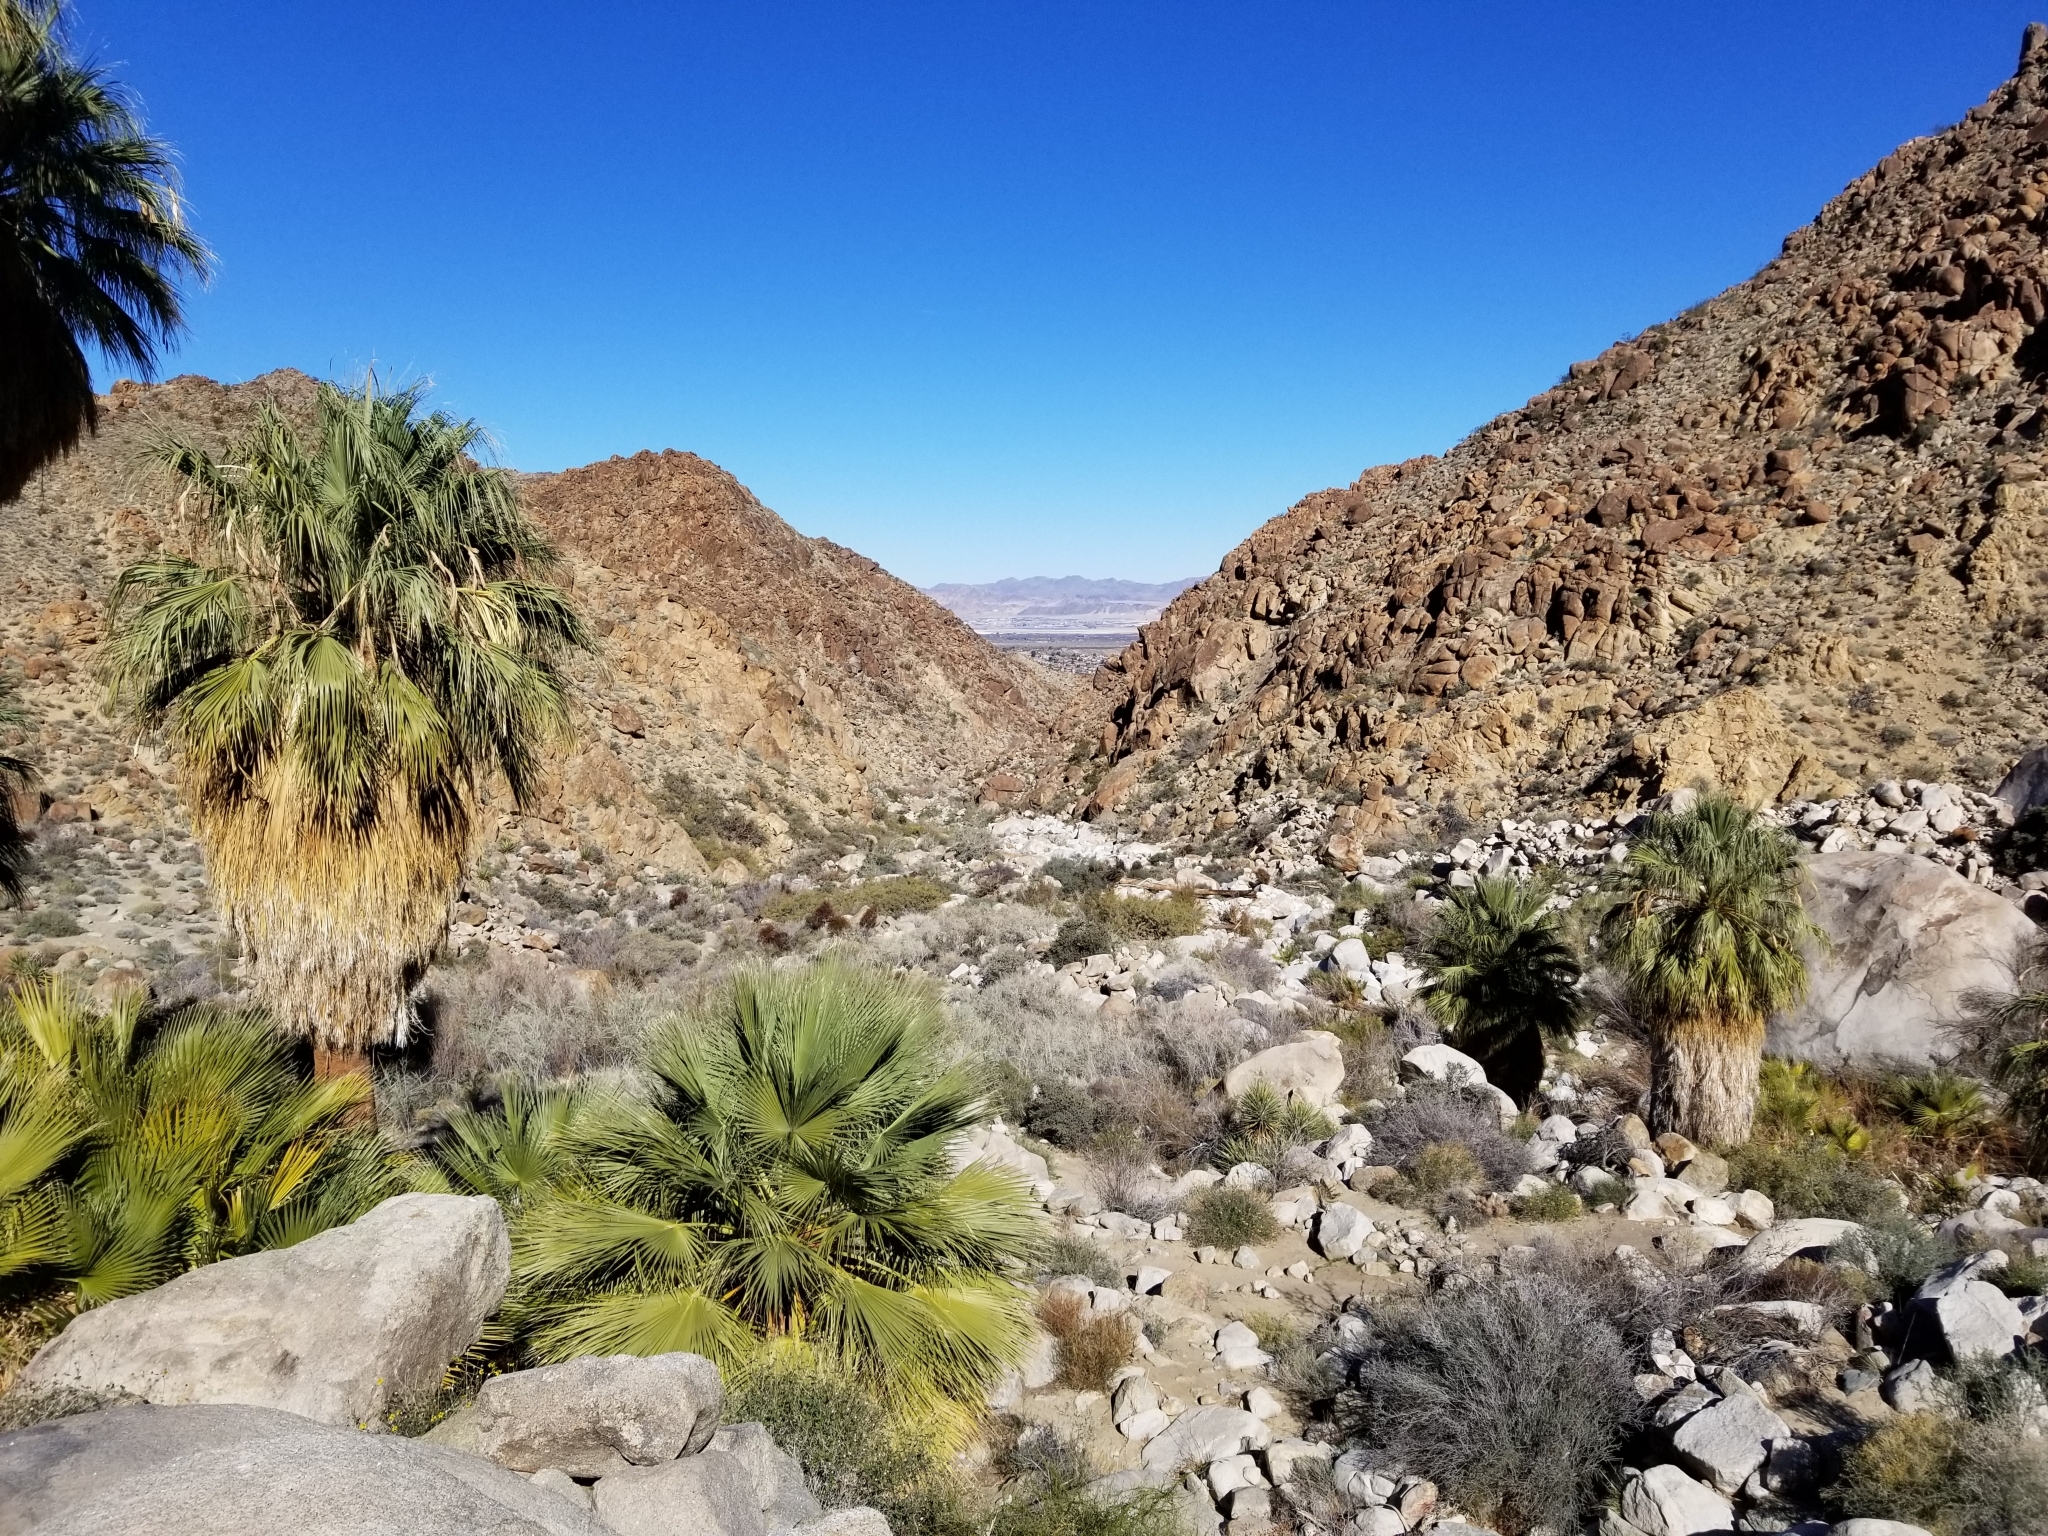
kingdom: Plantae
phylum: Tracheophyta
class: Liliopsida
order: Arecales
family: Arecaceae
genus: Washingtonia
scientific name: Washingtonia filifera
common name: California fan palm
